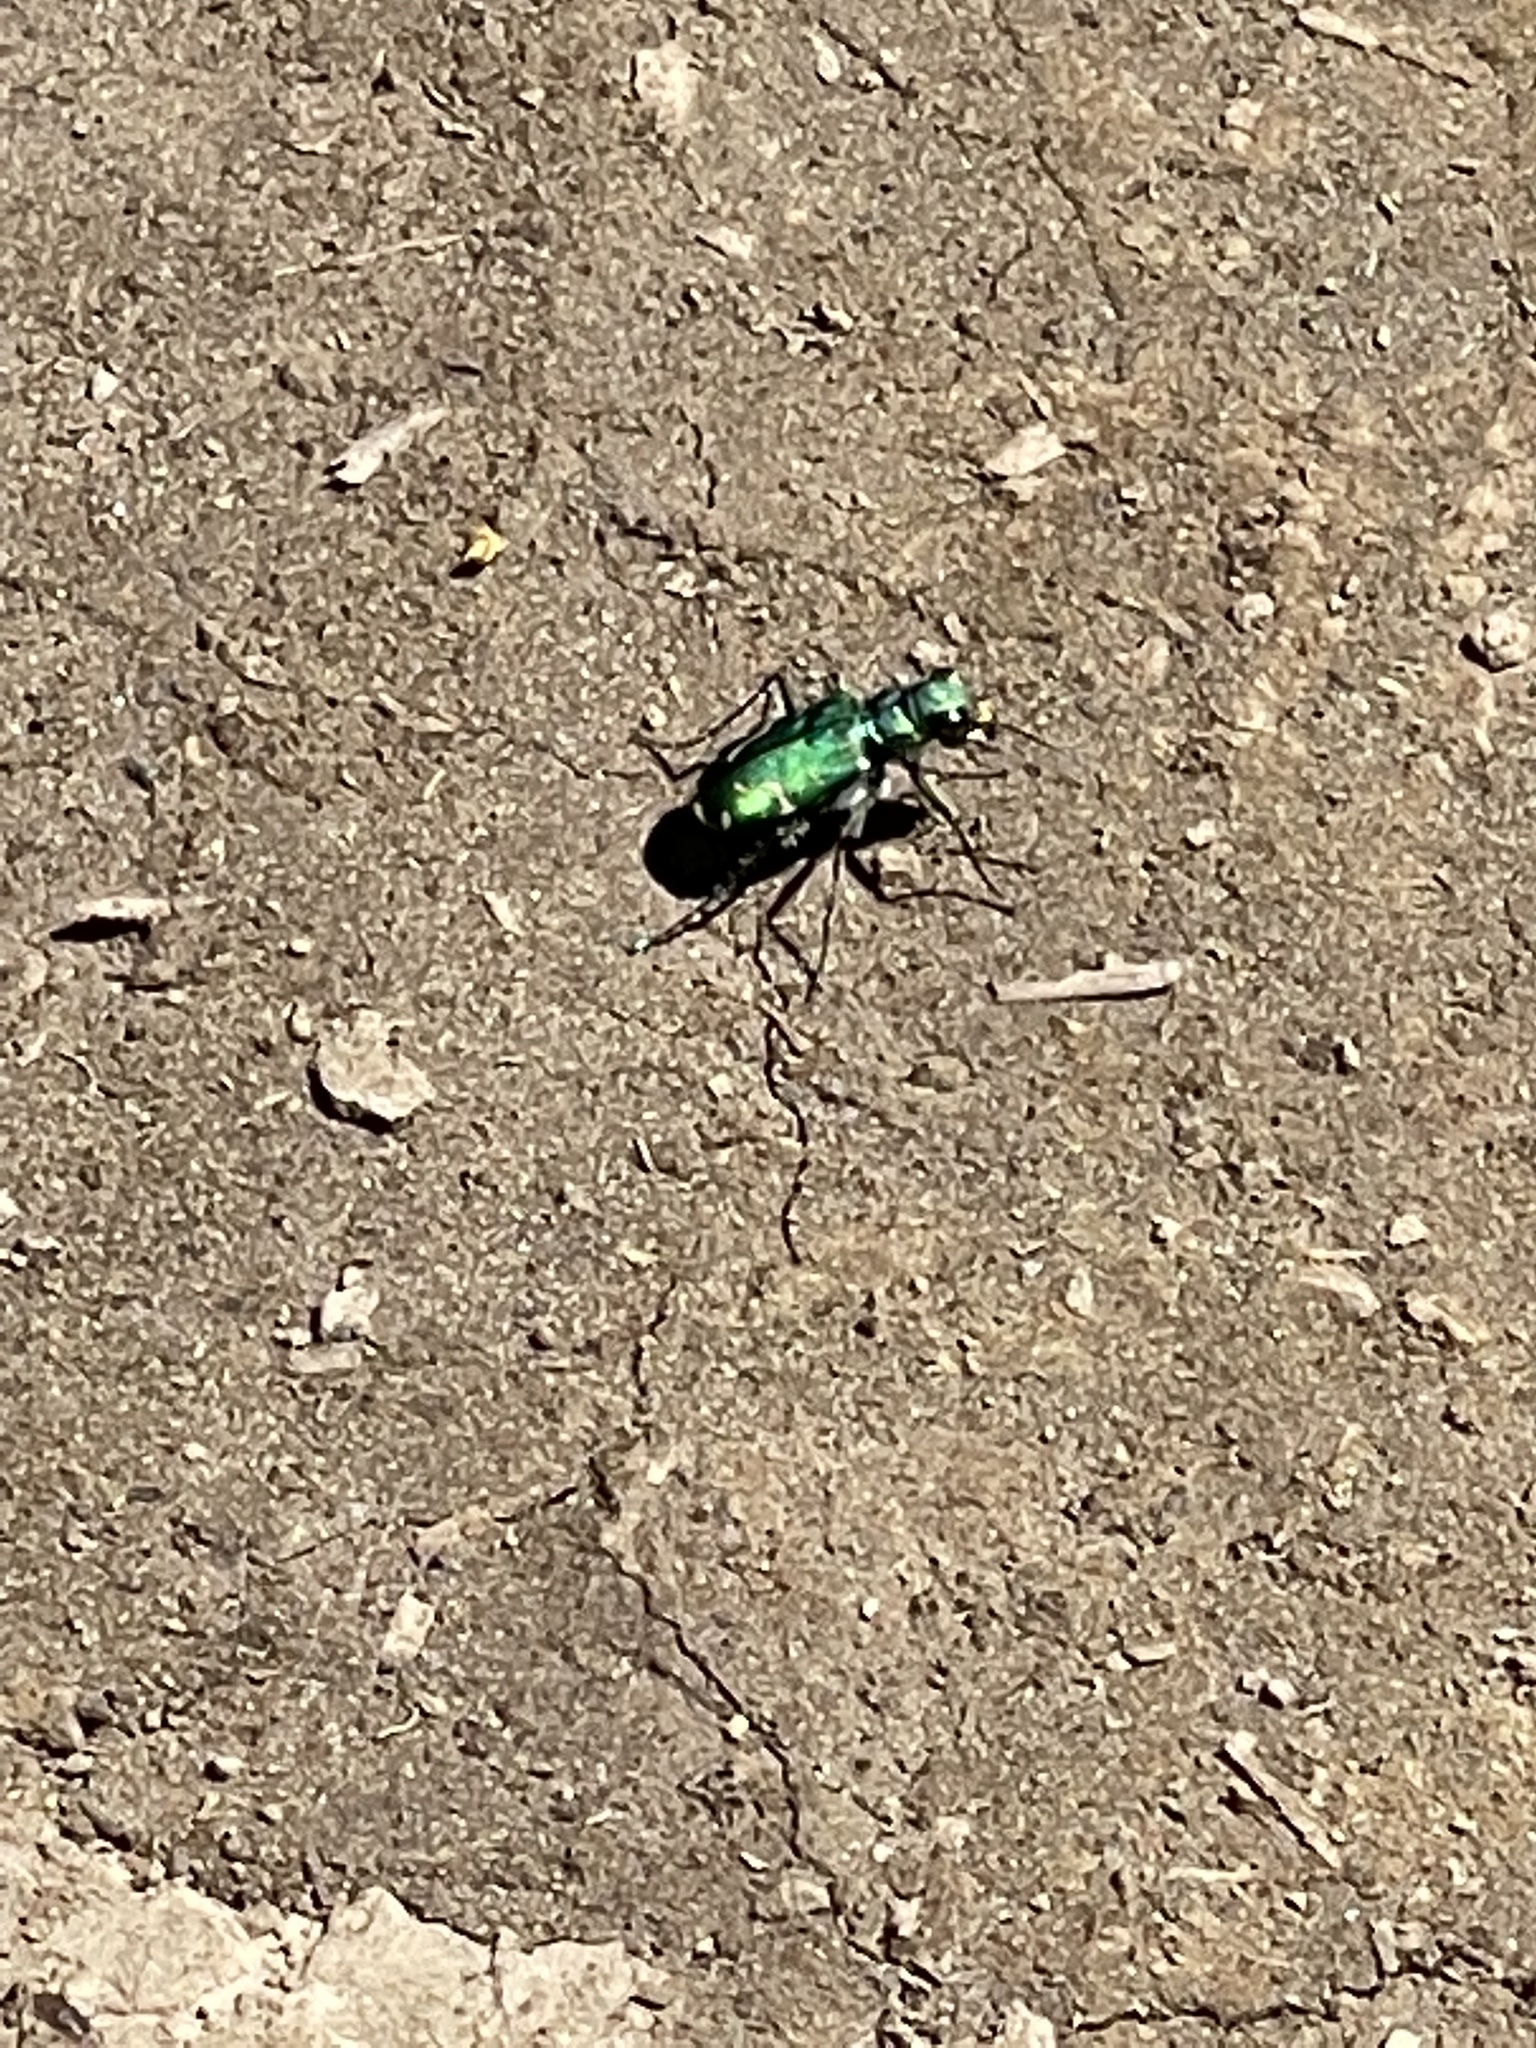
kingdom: Animalia
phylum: Arthropoda
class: Insecta
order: Coleoptera
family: Carabidae
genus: Cicindela
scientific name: Cicindela tranquebarica
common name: Oblique-lined tiger beetle
